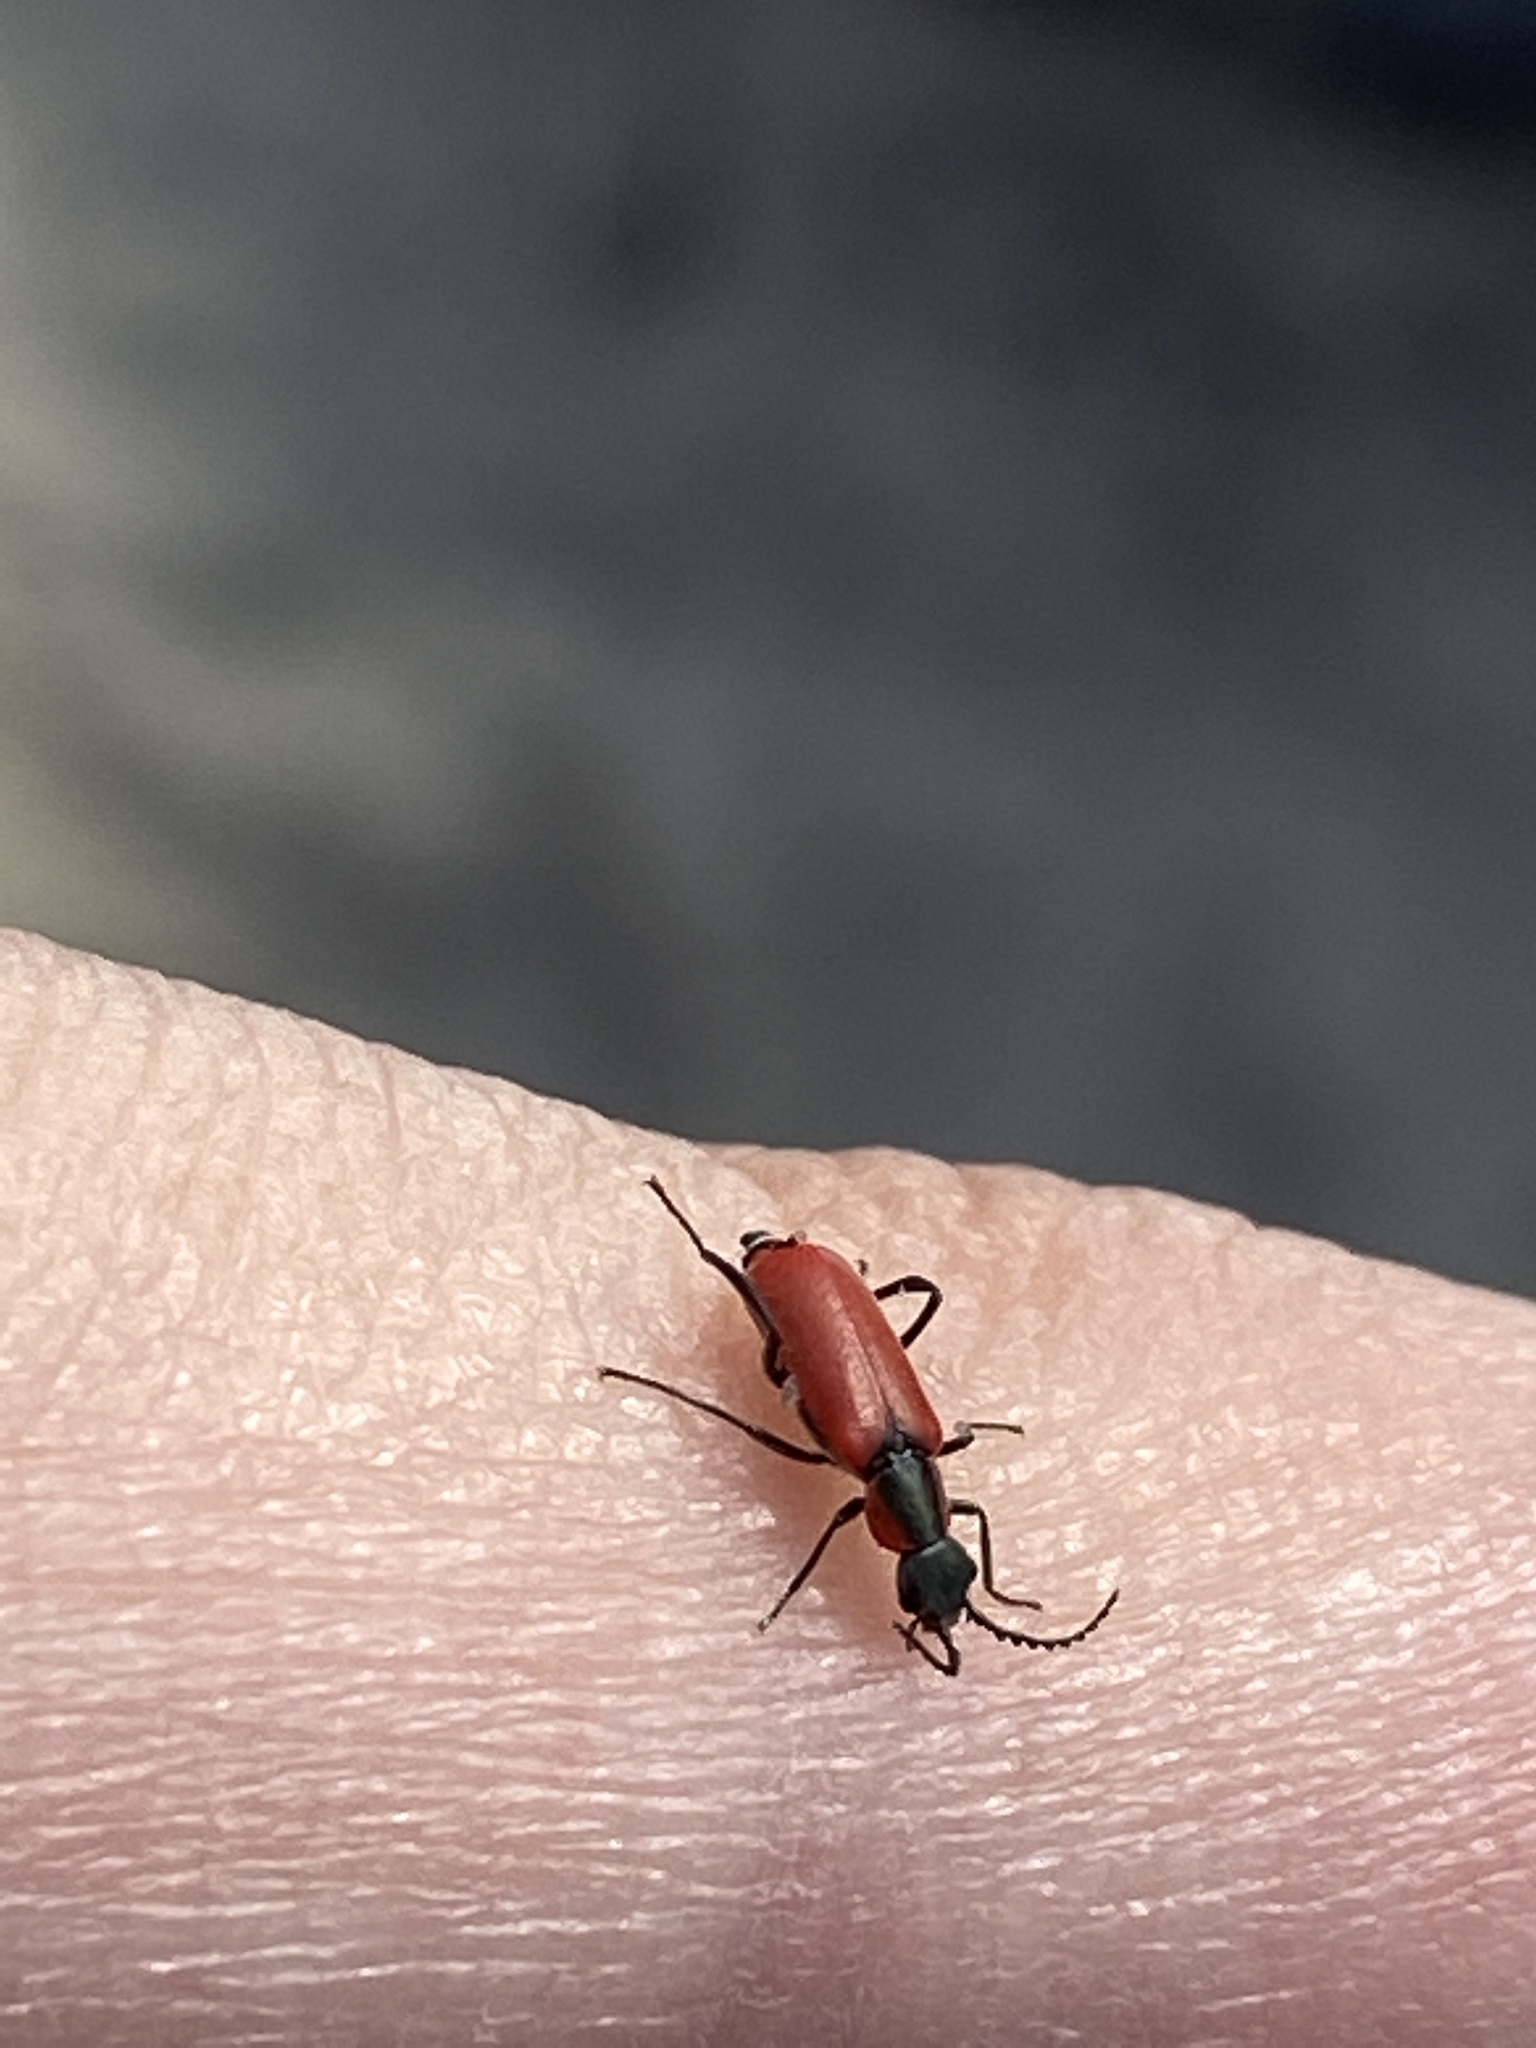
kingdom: Animalia
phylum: Arthropoda
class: Insecta
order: Coleoptera
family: Melyridae
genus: Anthocomus
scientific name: Anthocomus rufus
